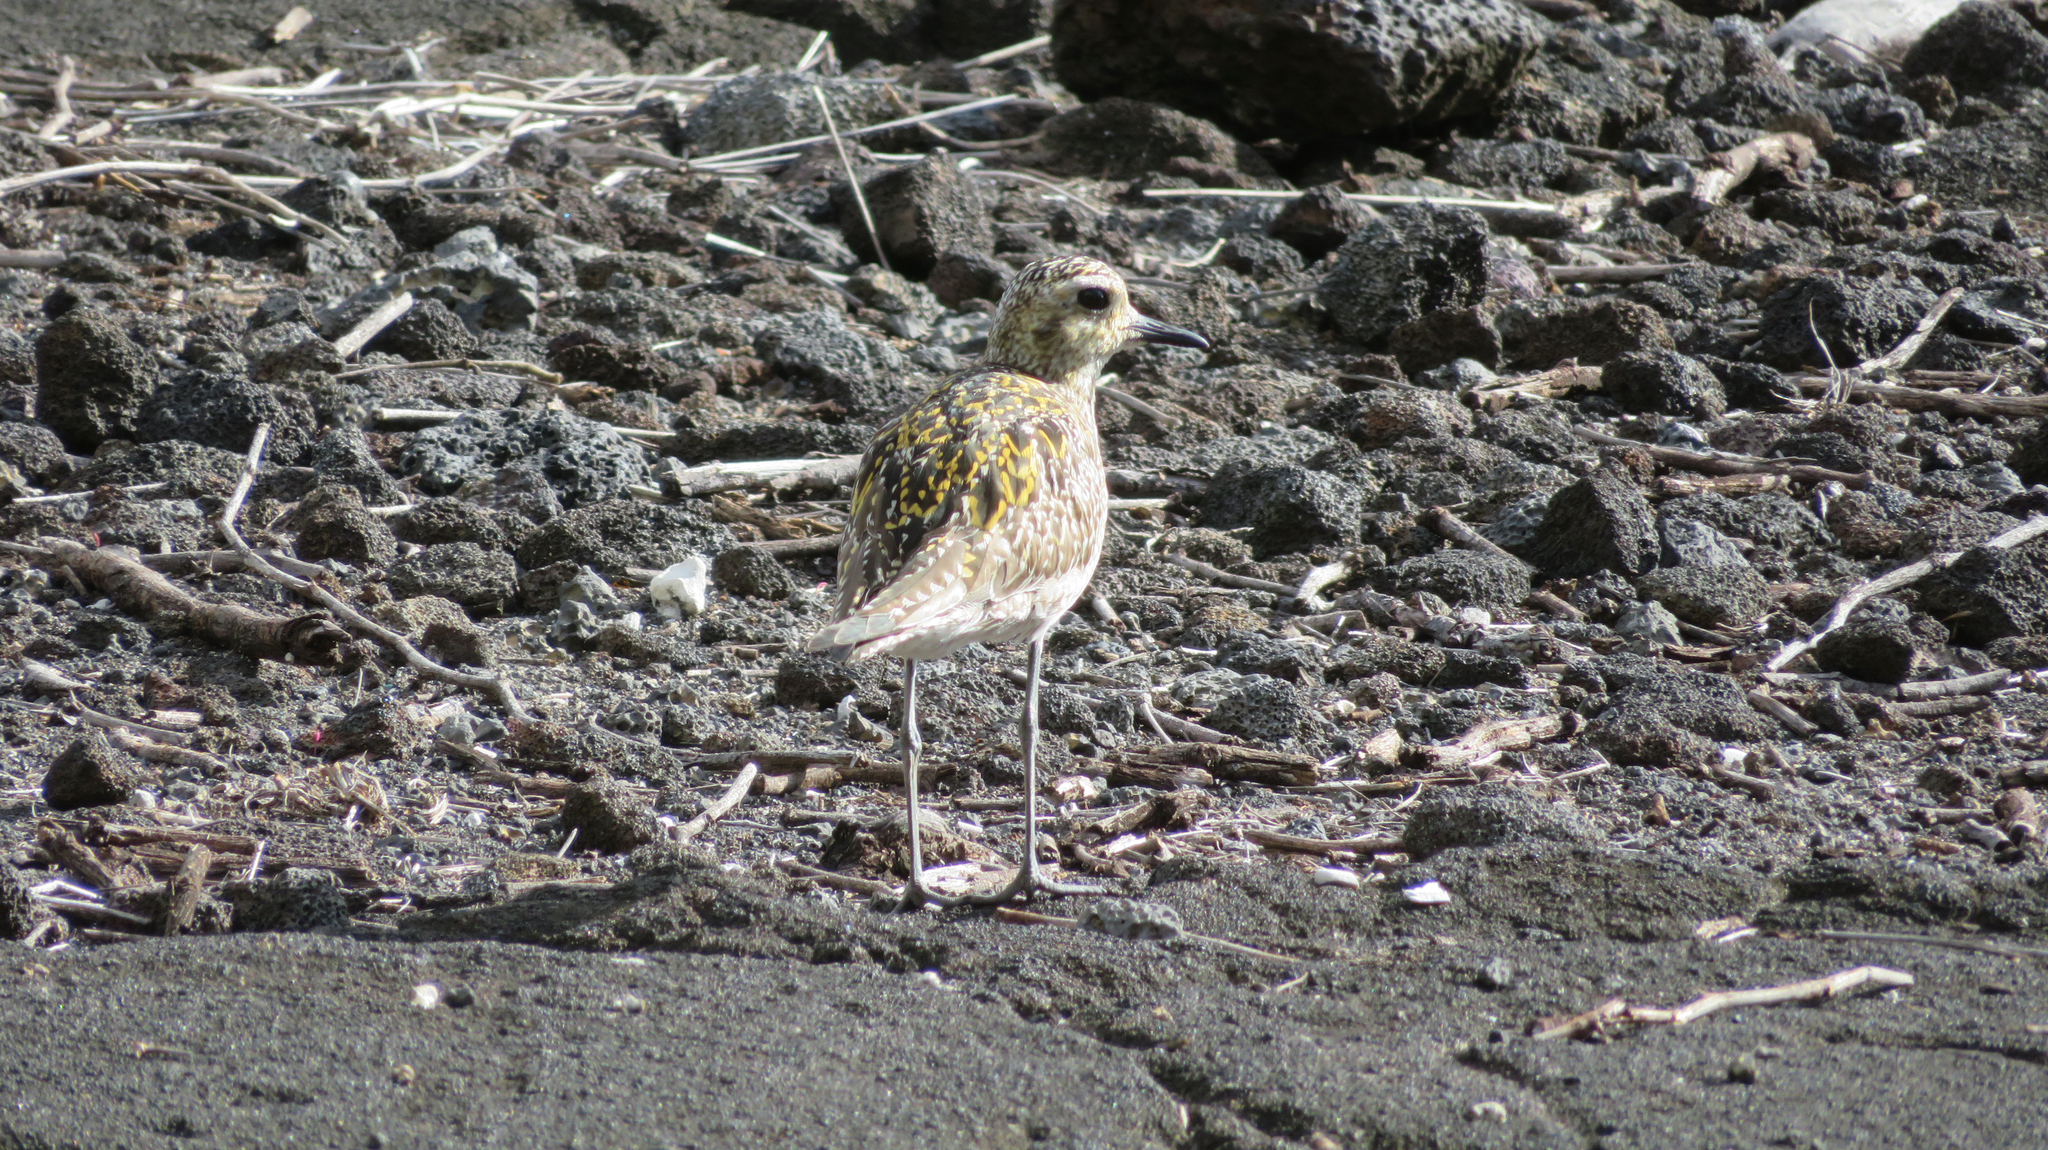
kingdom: Animalia
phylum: Chordata
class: Aves
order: Charadriiformes
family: Charadriidae
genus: Pluvialis
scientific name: Pluvialis fulva
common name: Pacific golden plover
